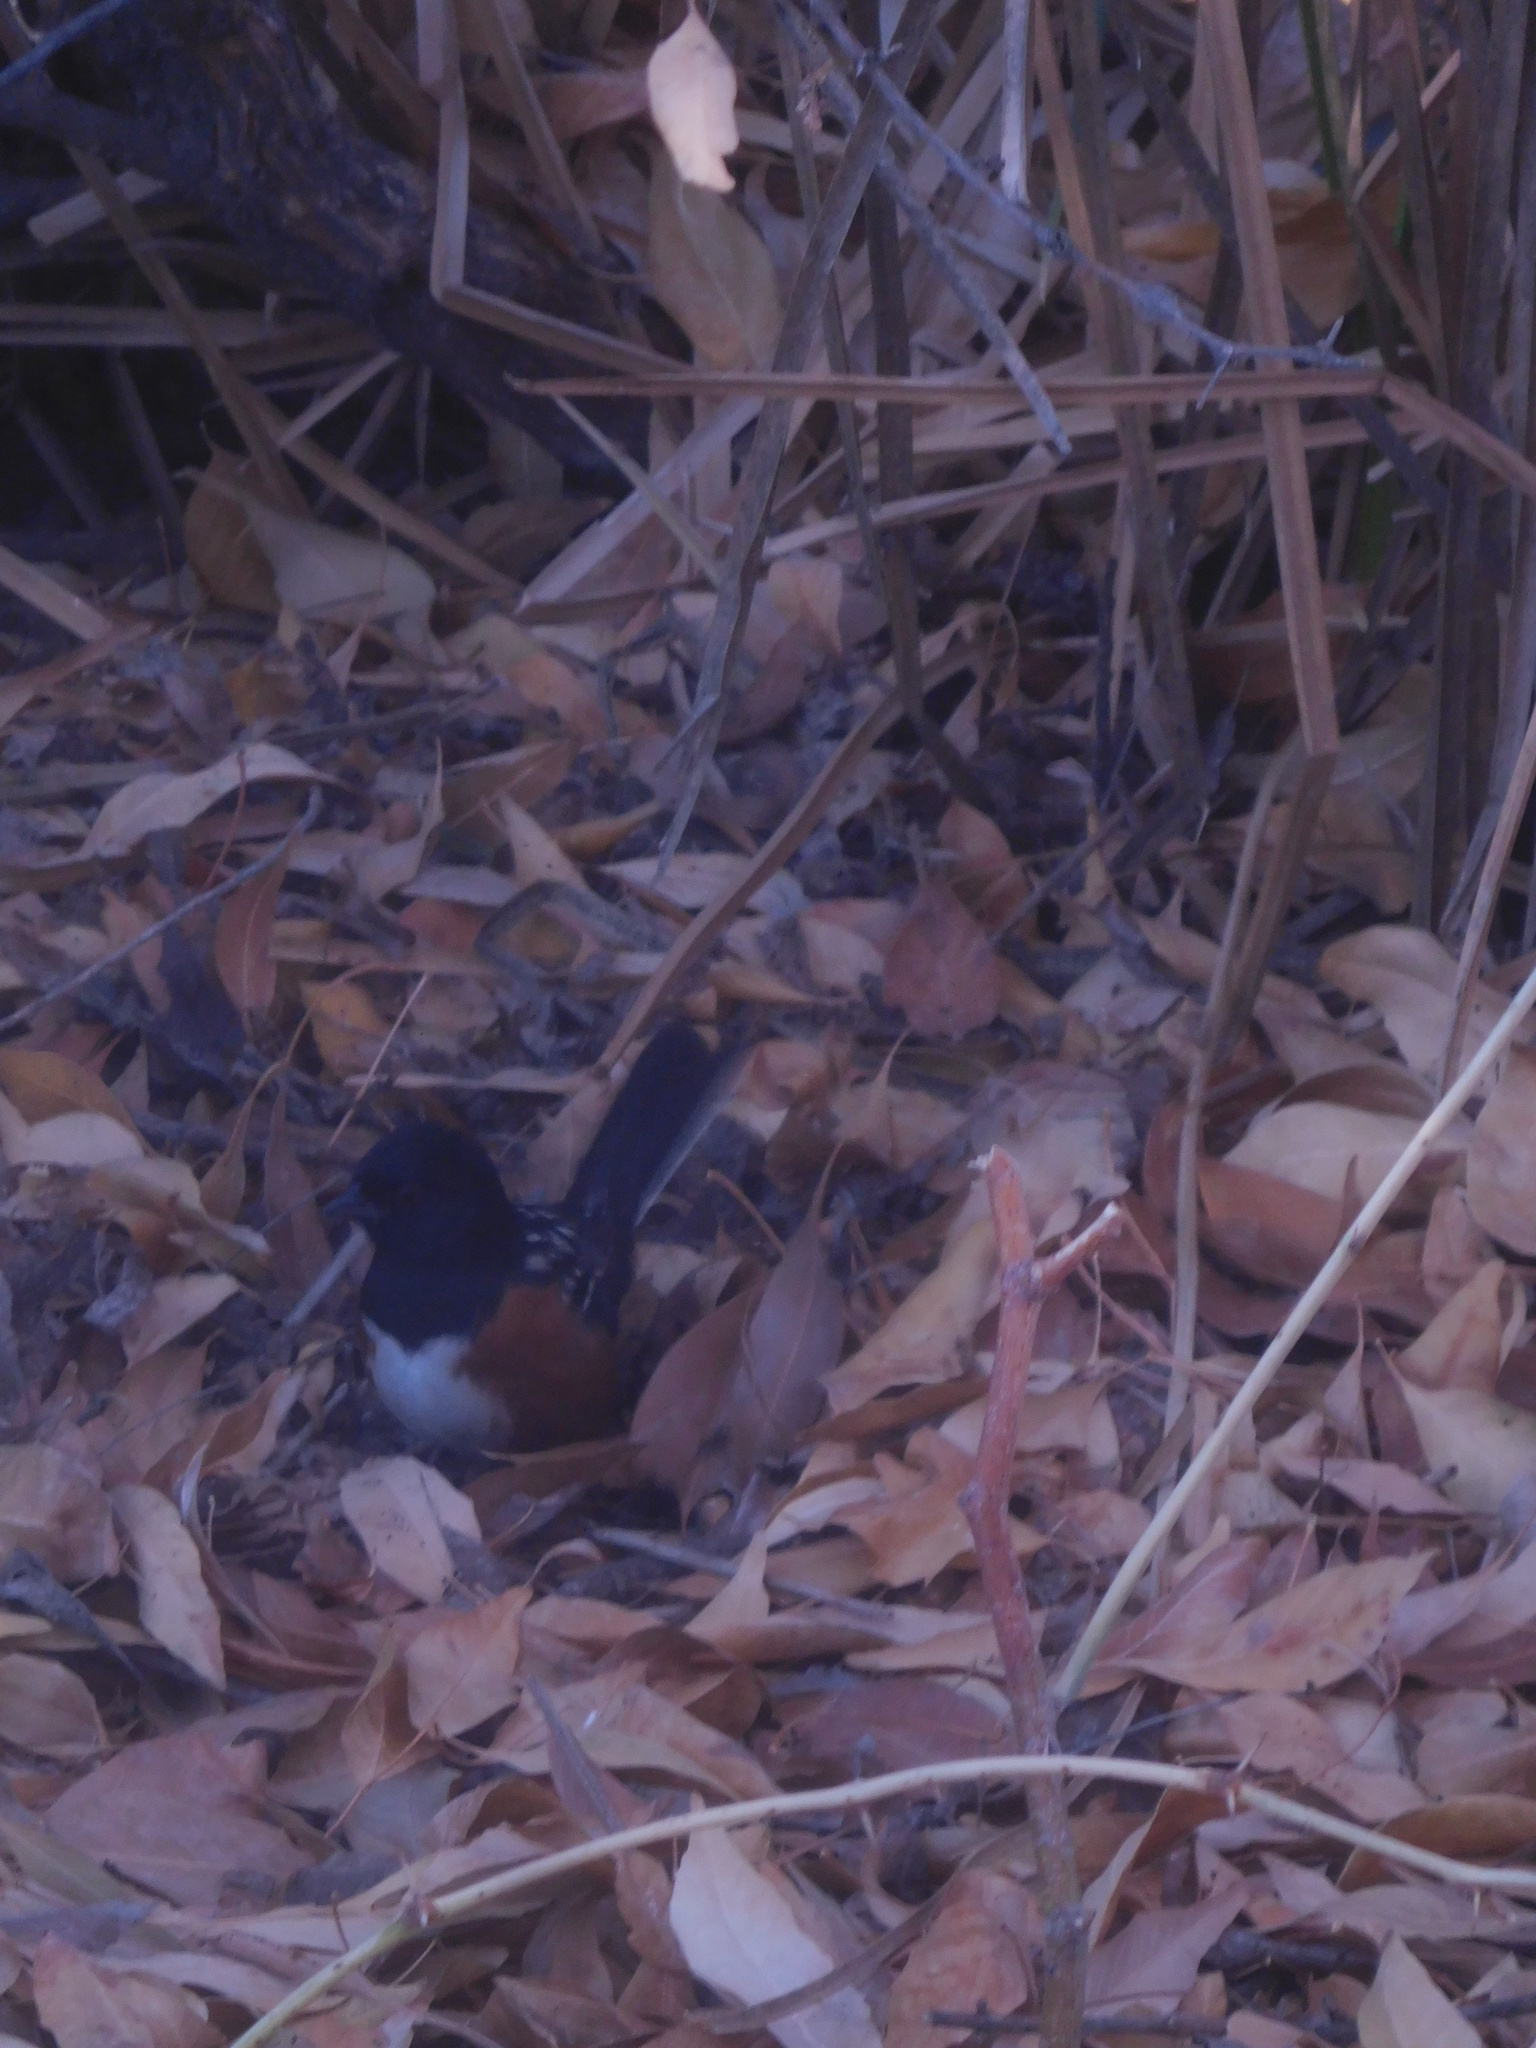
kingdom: Animalia
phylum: Chordata
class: Aves
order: Passeriformes
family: Passerellidae
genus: Pipilo
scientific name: Pipilo maculatus
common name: Spotted towhee
